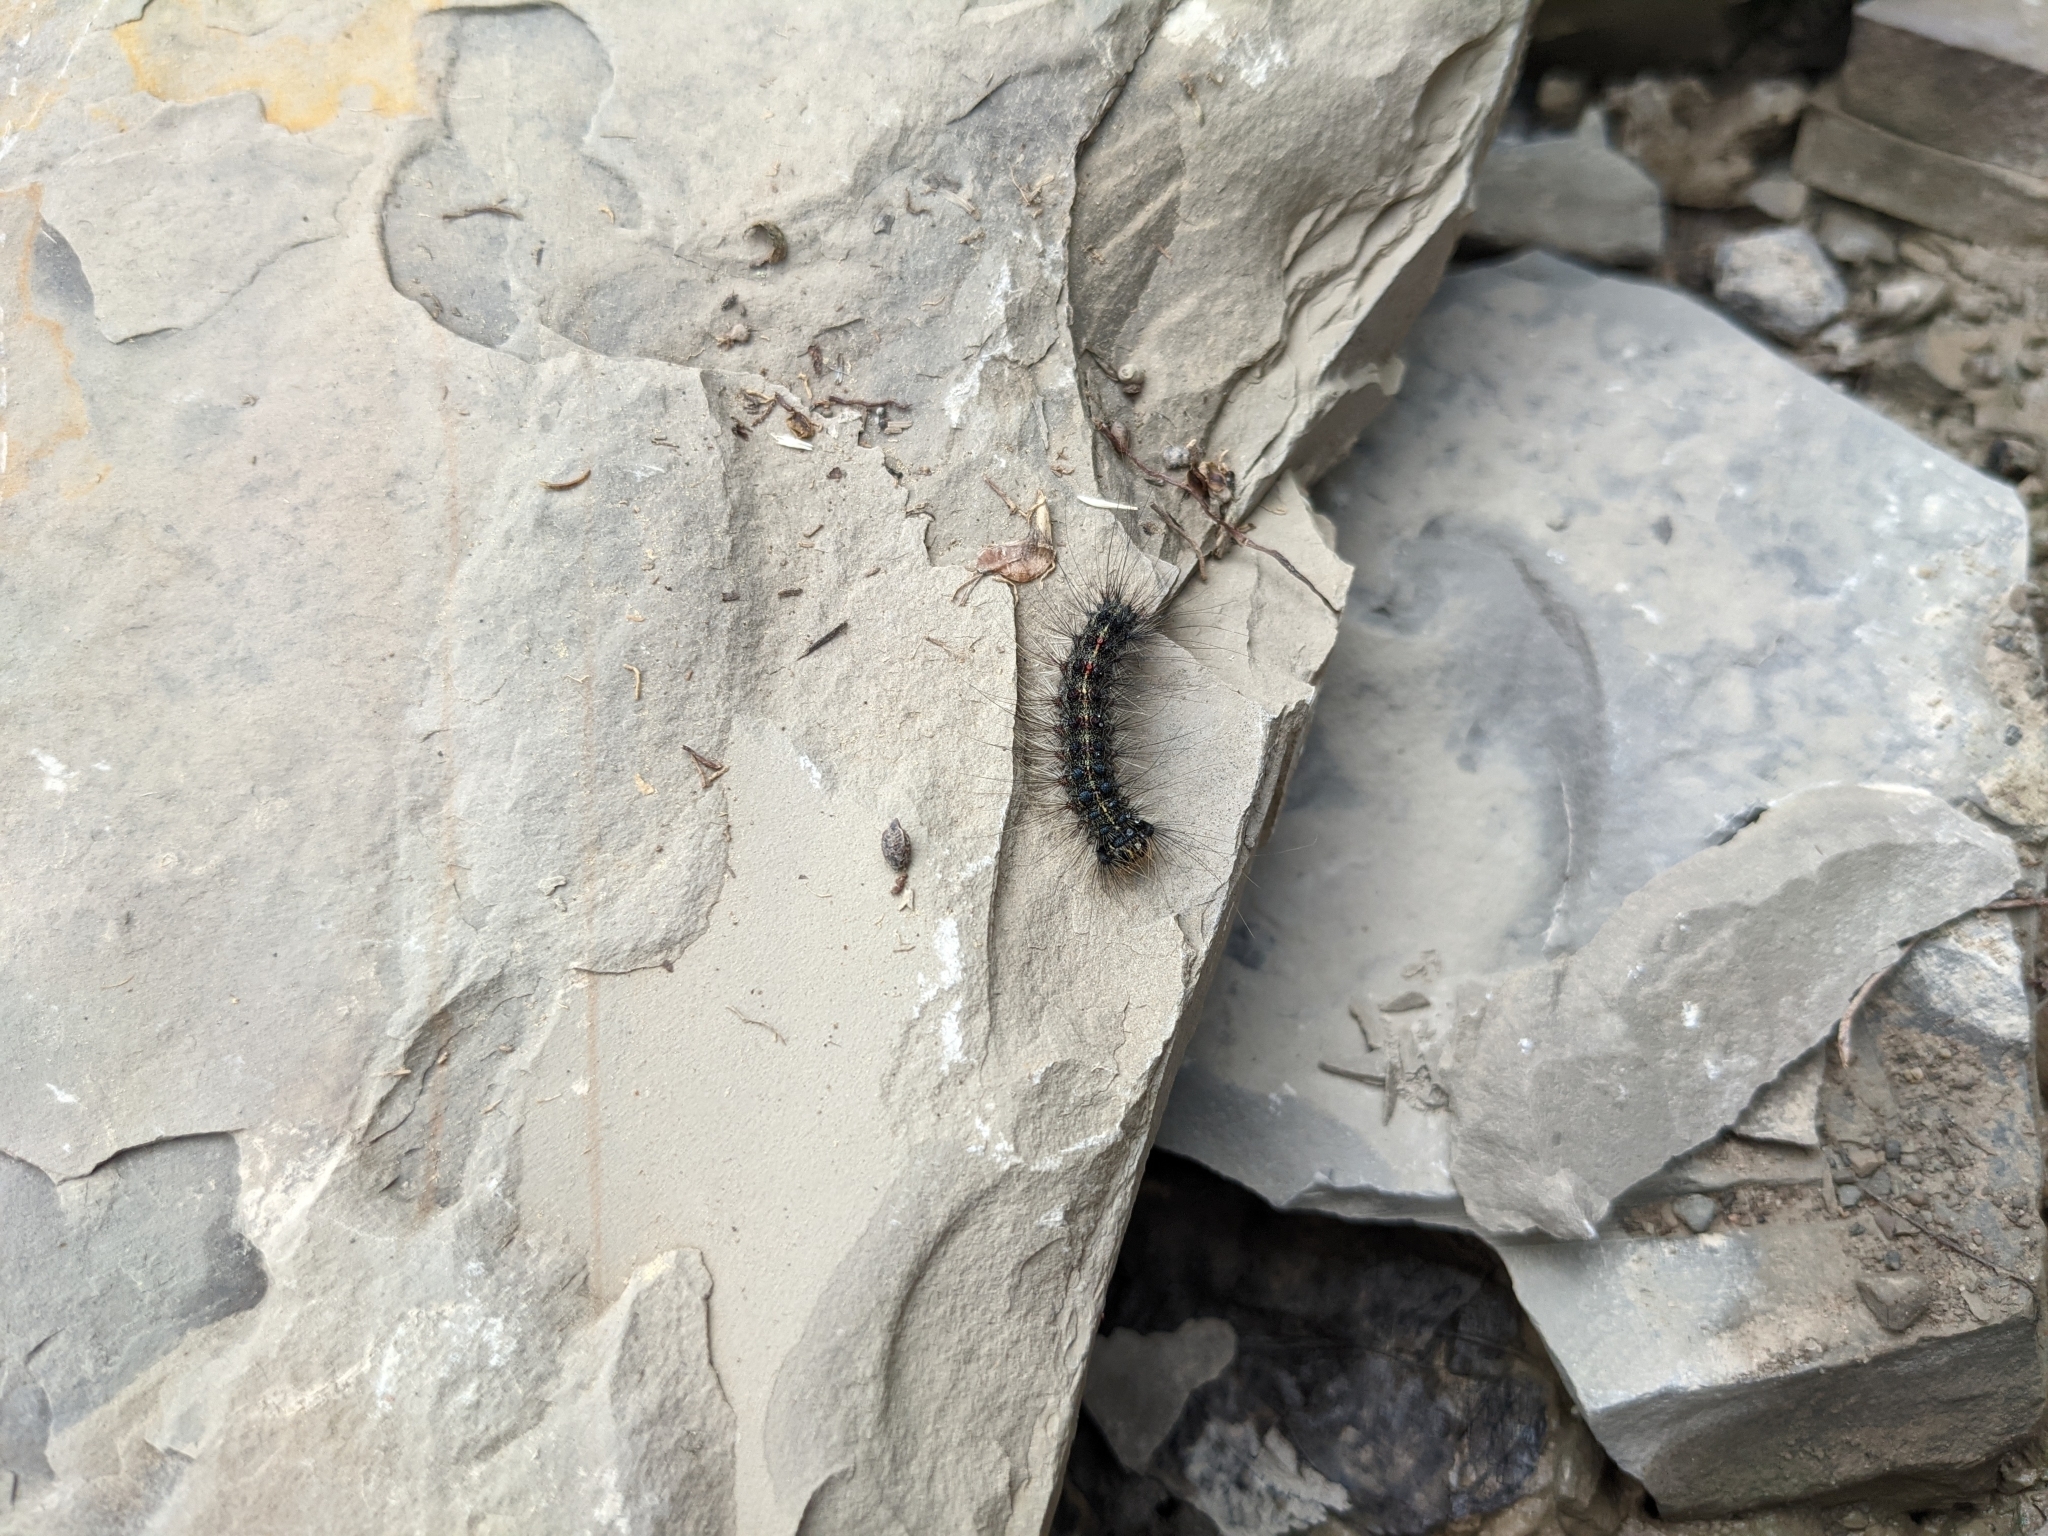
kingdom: Animalia
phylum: Arthropoda
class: Insecta
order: Lepidoptera
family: Erebidae
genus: Lymantria
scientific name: Lymantria dispar
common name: Gypsy moth
